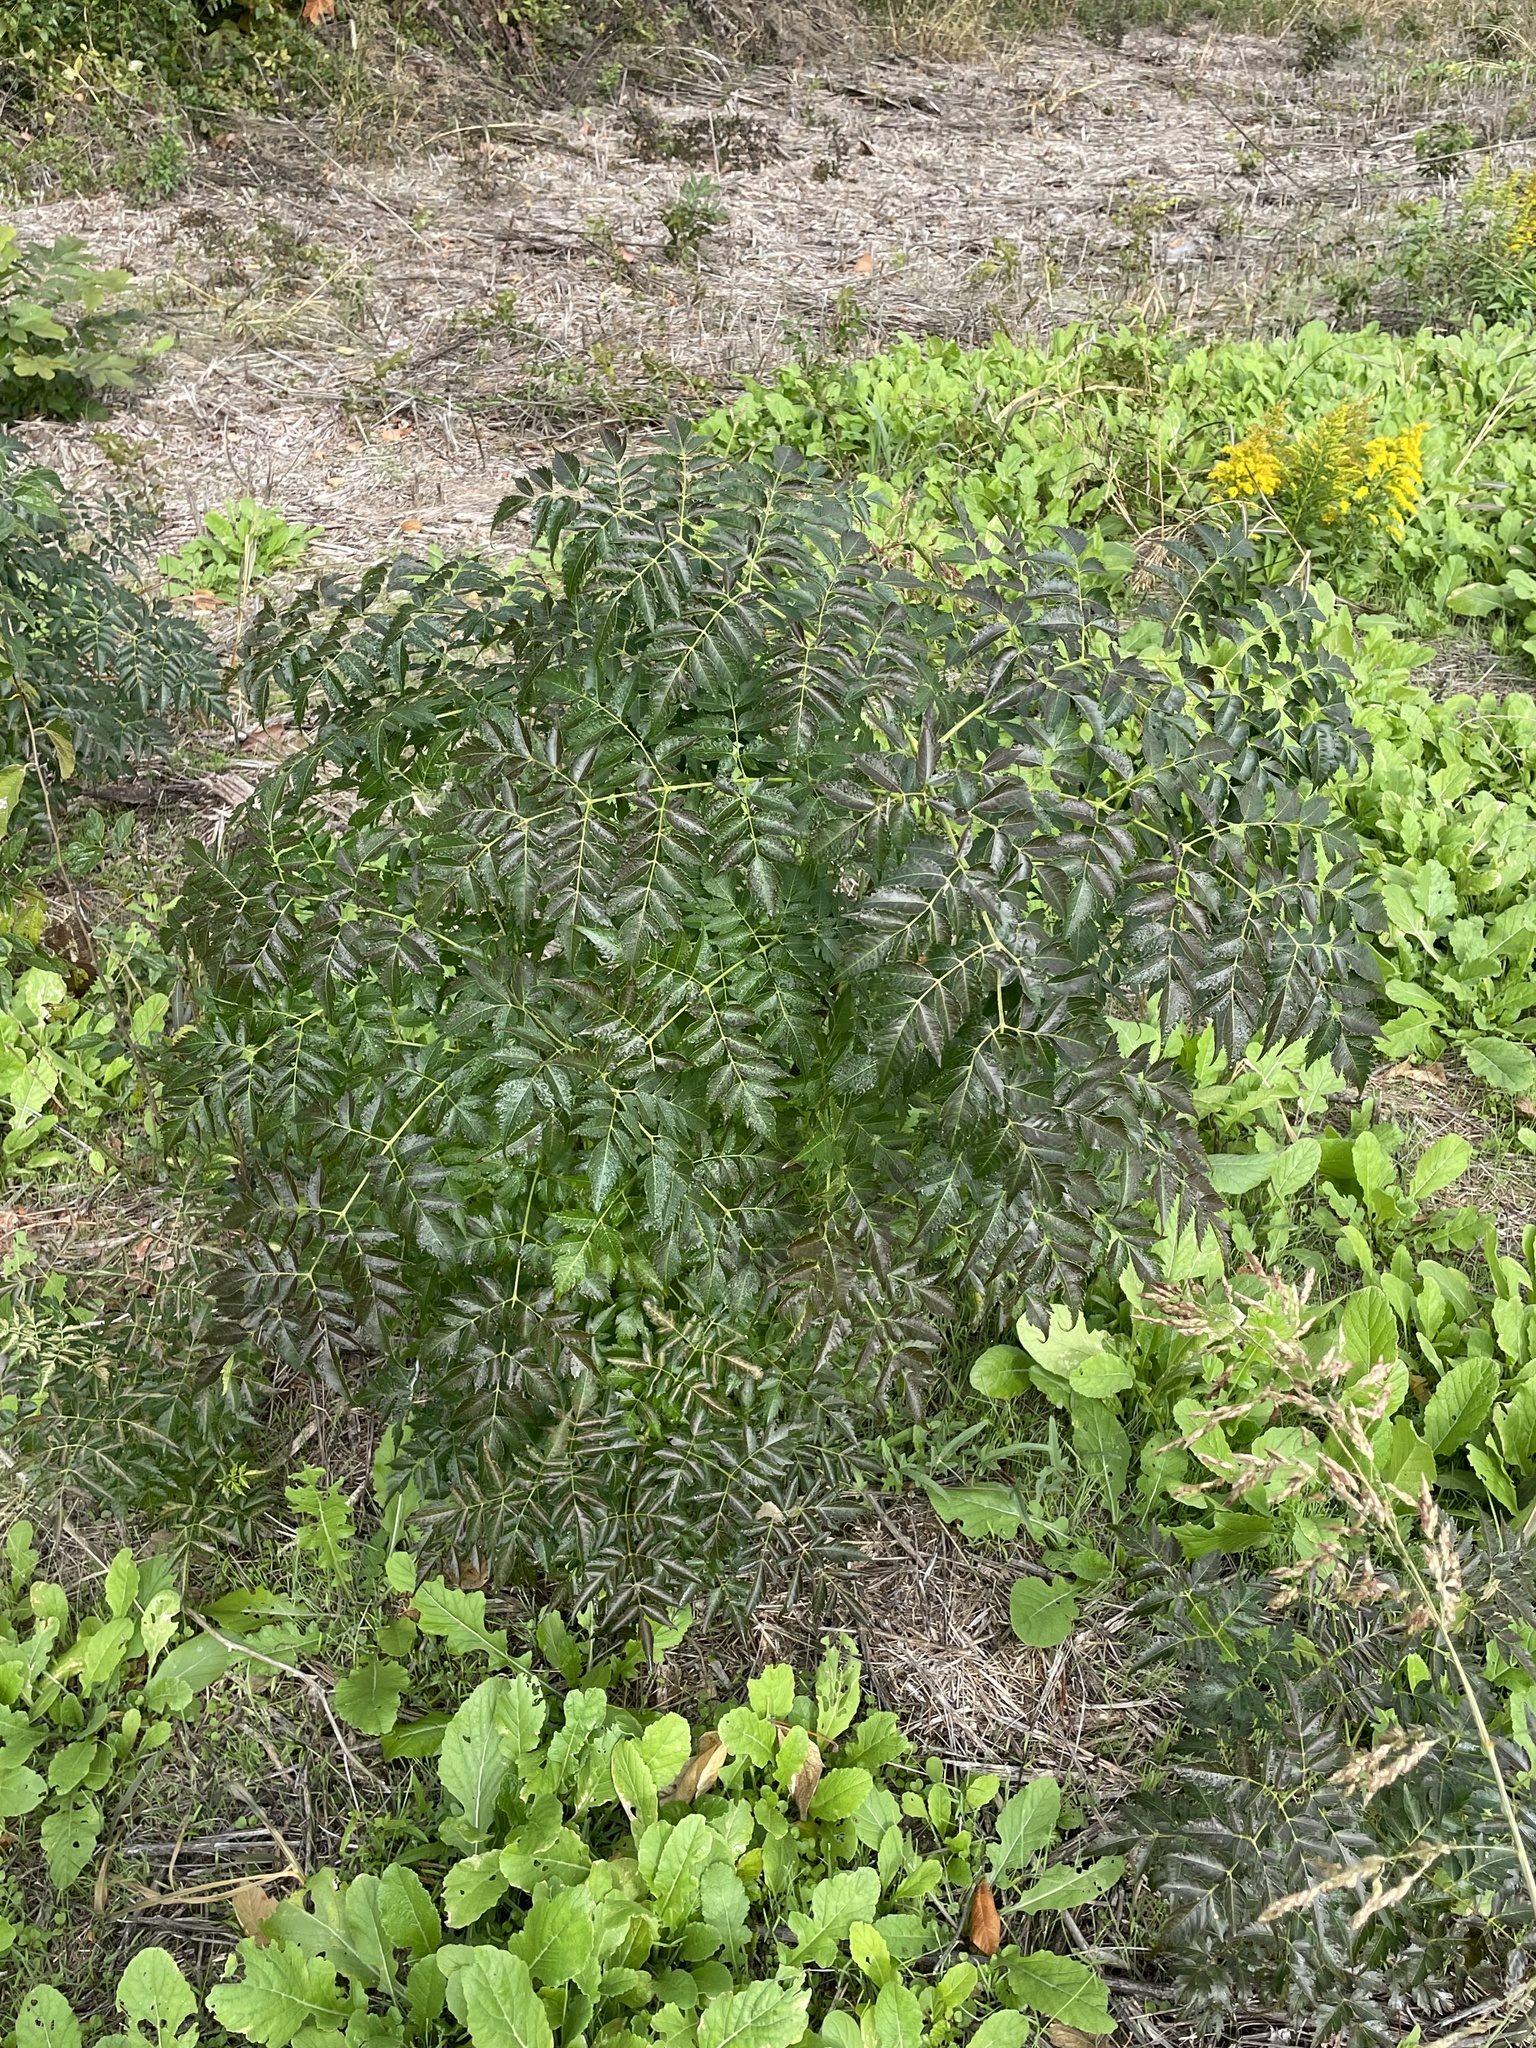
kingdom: Plantae
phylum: Tracheophyta
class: Magnoliopsida
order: Sapindales
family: Meliaceae
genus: Melia
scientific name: Melia azedarach
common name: Chinaberrytree
